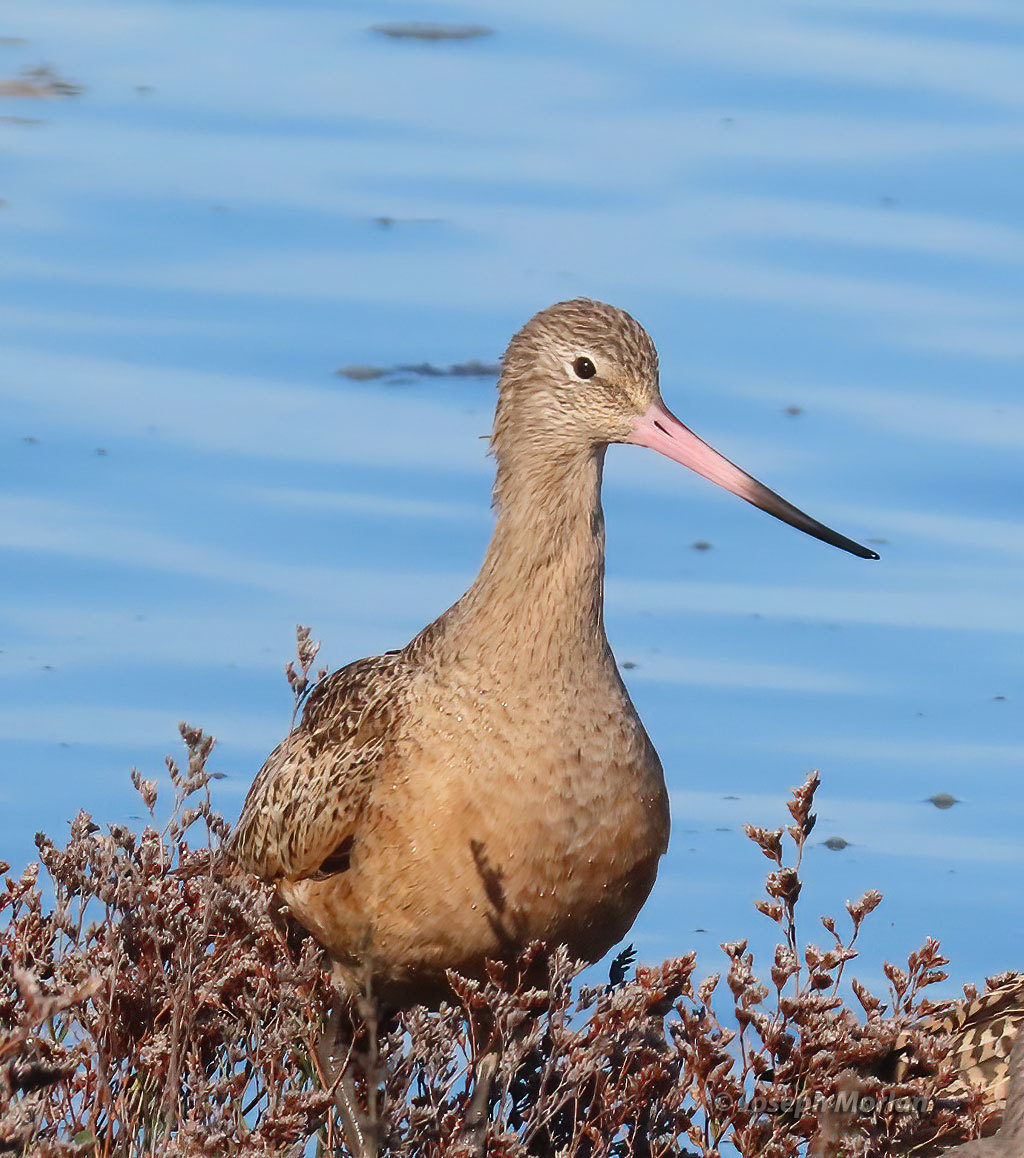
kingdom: Animalia
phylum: Chordata
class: Aves
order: Charadriiformes
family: Scolopacidae
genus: Limosa
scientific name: Limosa fedoa
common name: Marbled godwit
